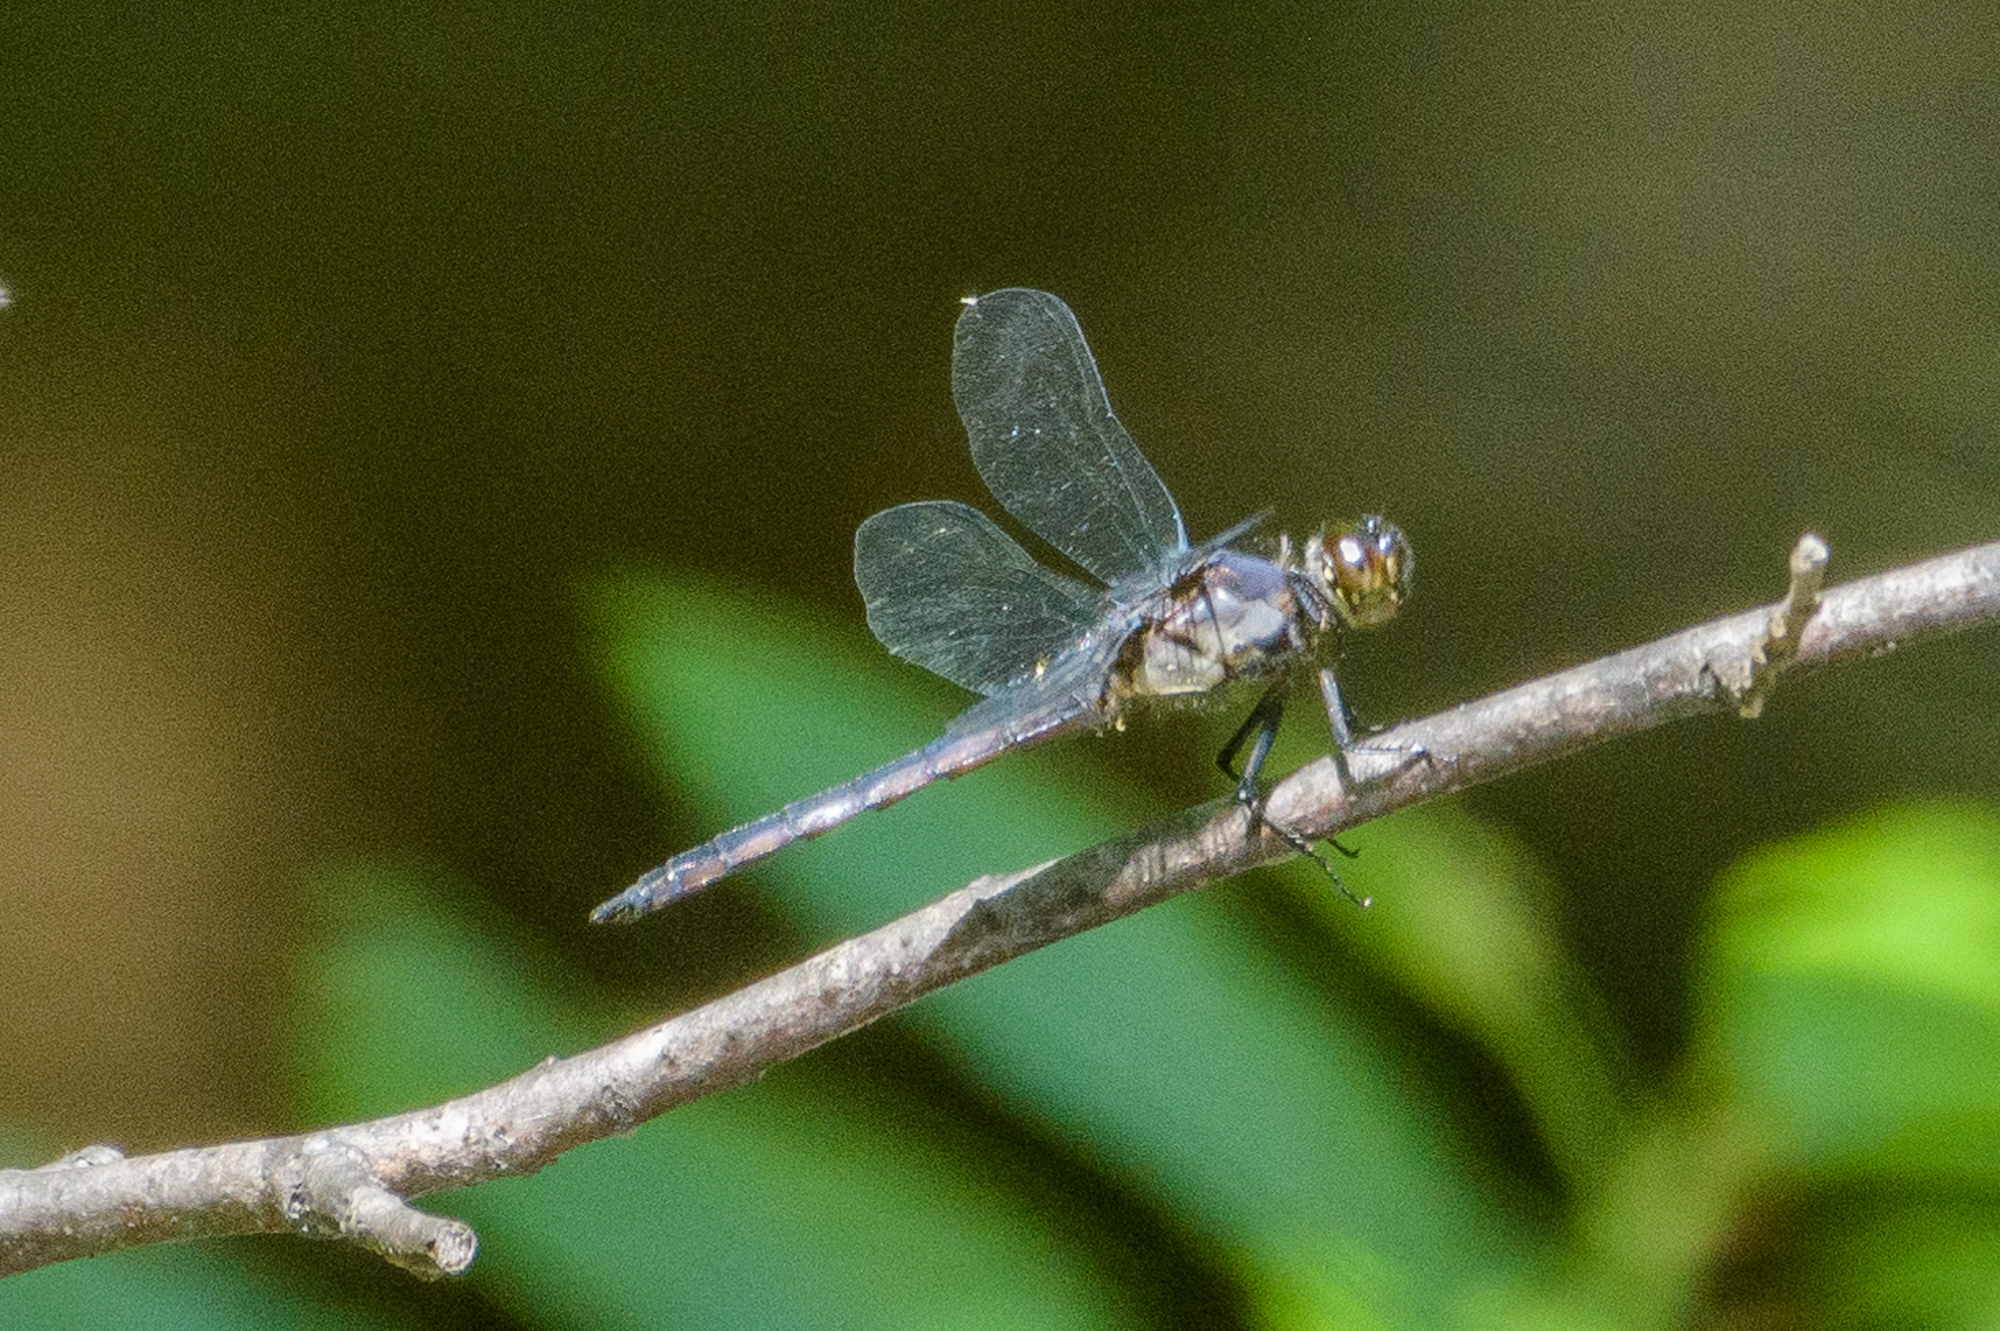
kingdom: Animalia
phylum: Arthropoda
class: Insecta
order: Odonata
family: Libellulidae
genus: Libellula
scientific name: Libellula incesta
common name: Slaty skimmer
